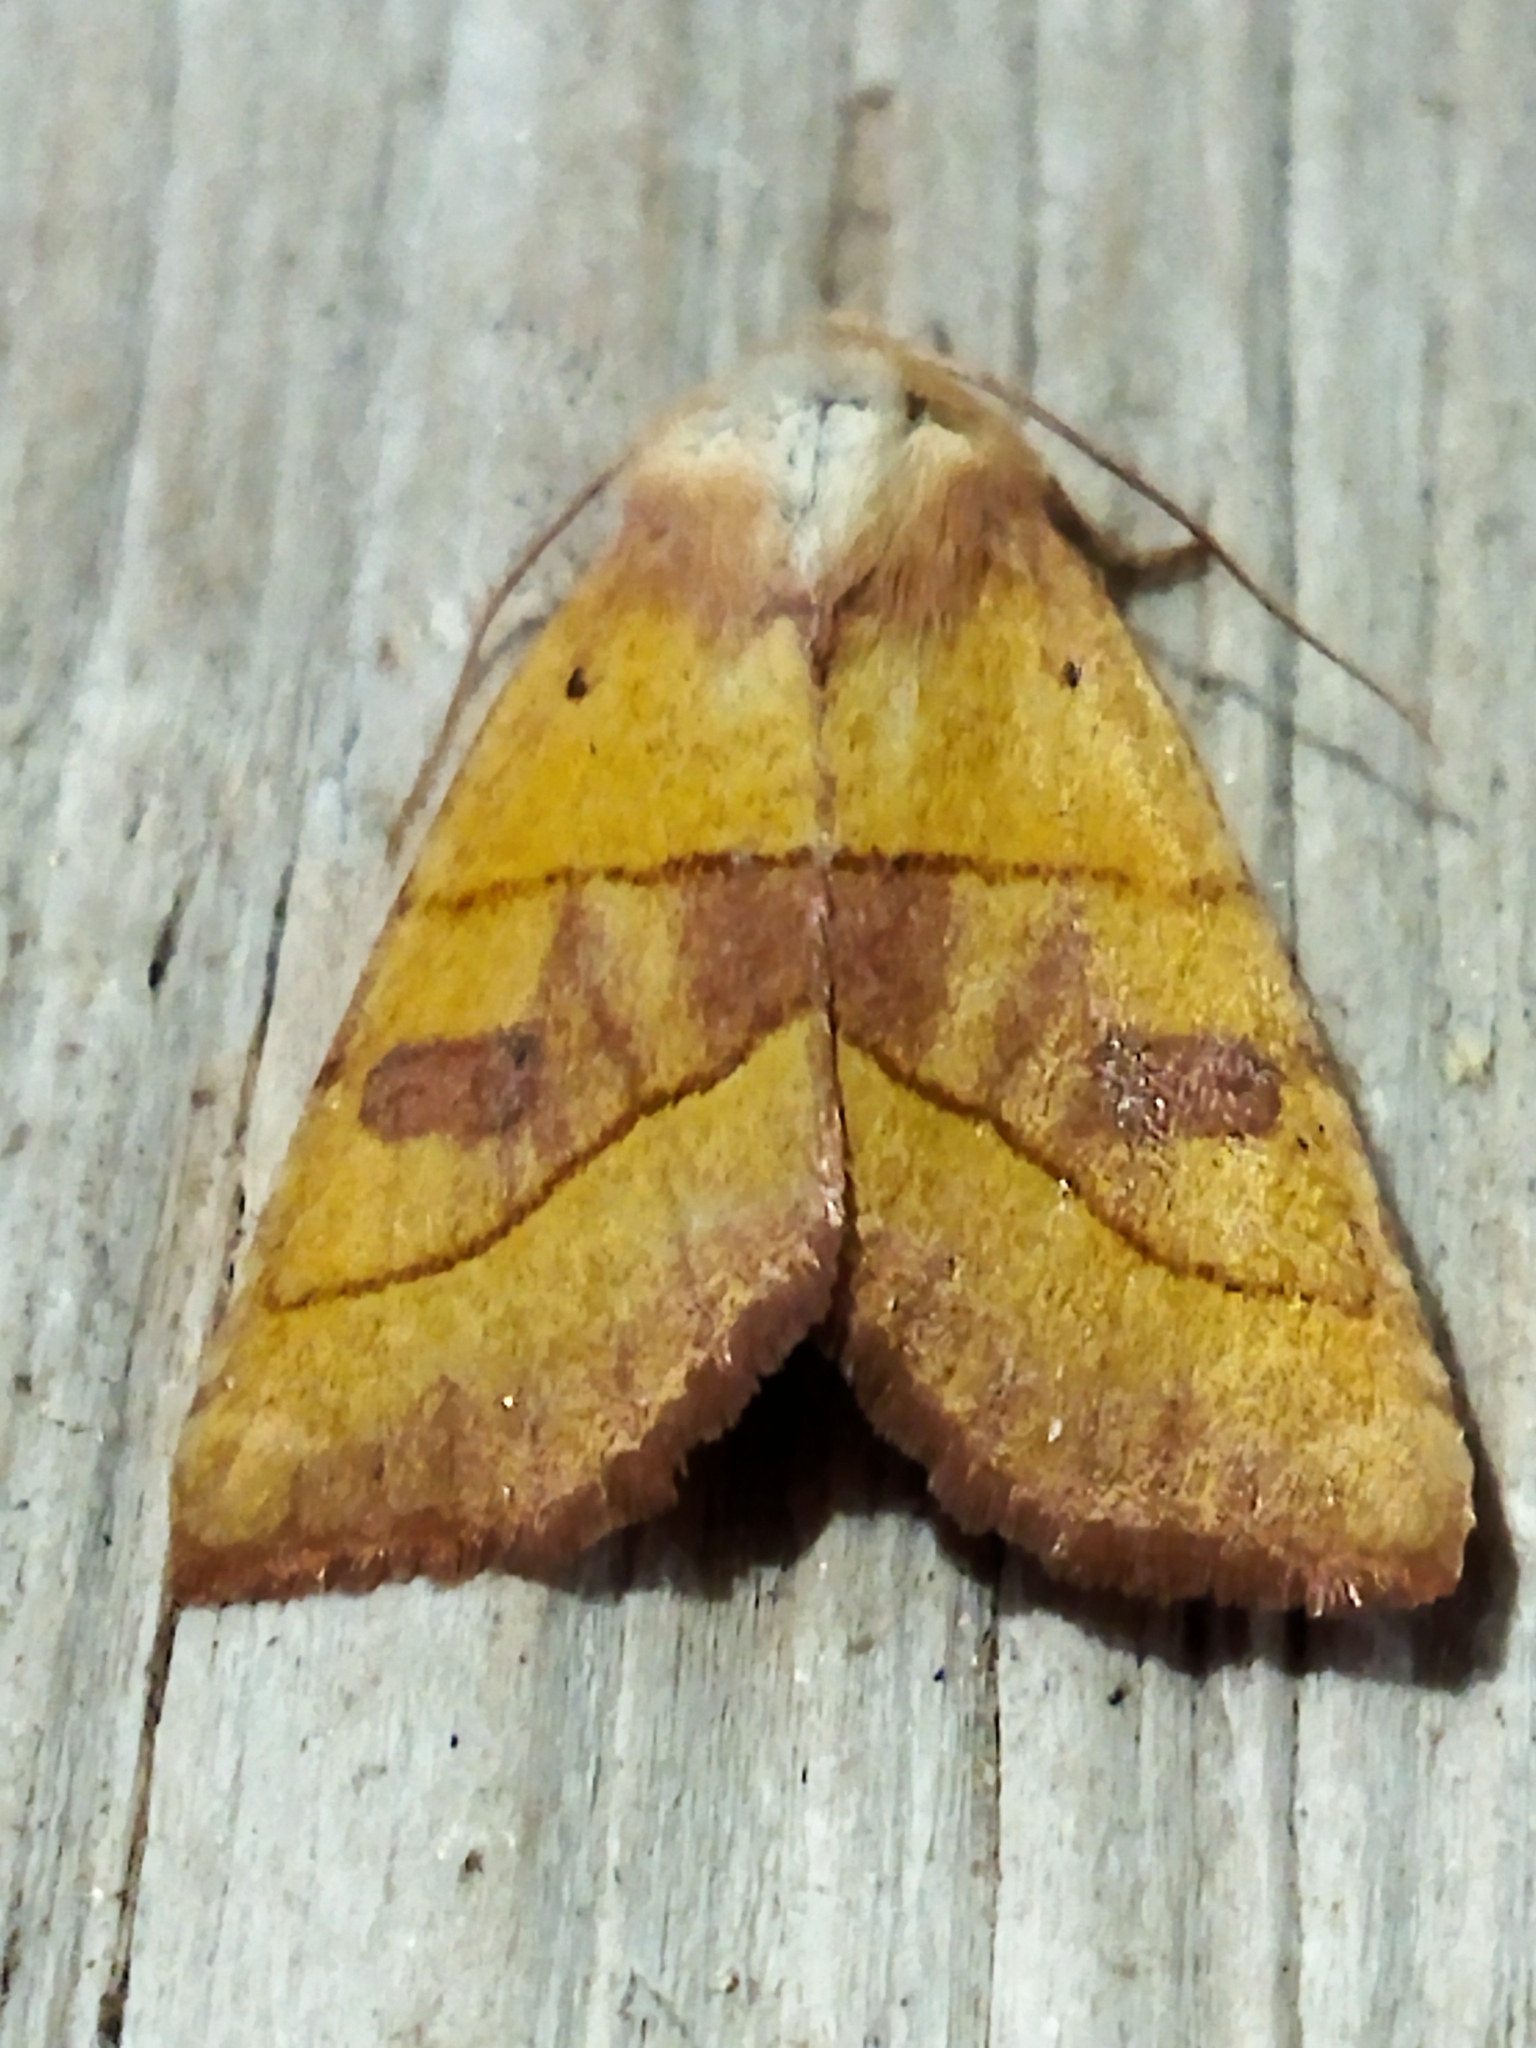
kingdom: Animalia
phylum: Arthropoda
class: Insecta
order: Lepidoptera
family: Noctuidae
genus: Atethmia
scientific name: Atethmia centrago
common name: Centre-barred sallow
